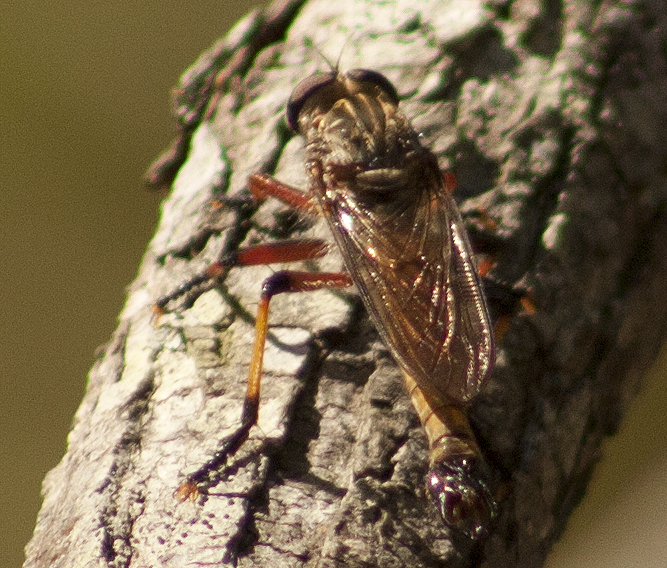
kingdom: Animalia
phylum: Arthropoda
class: Insecta
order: Diptera
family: Asilidae
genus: Dolopus
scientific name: Dolopus simulans
